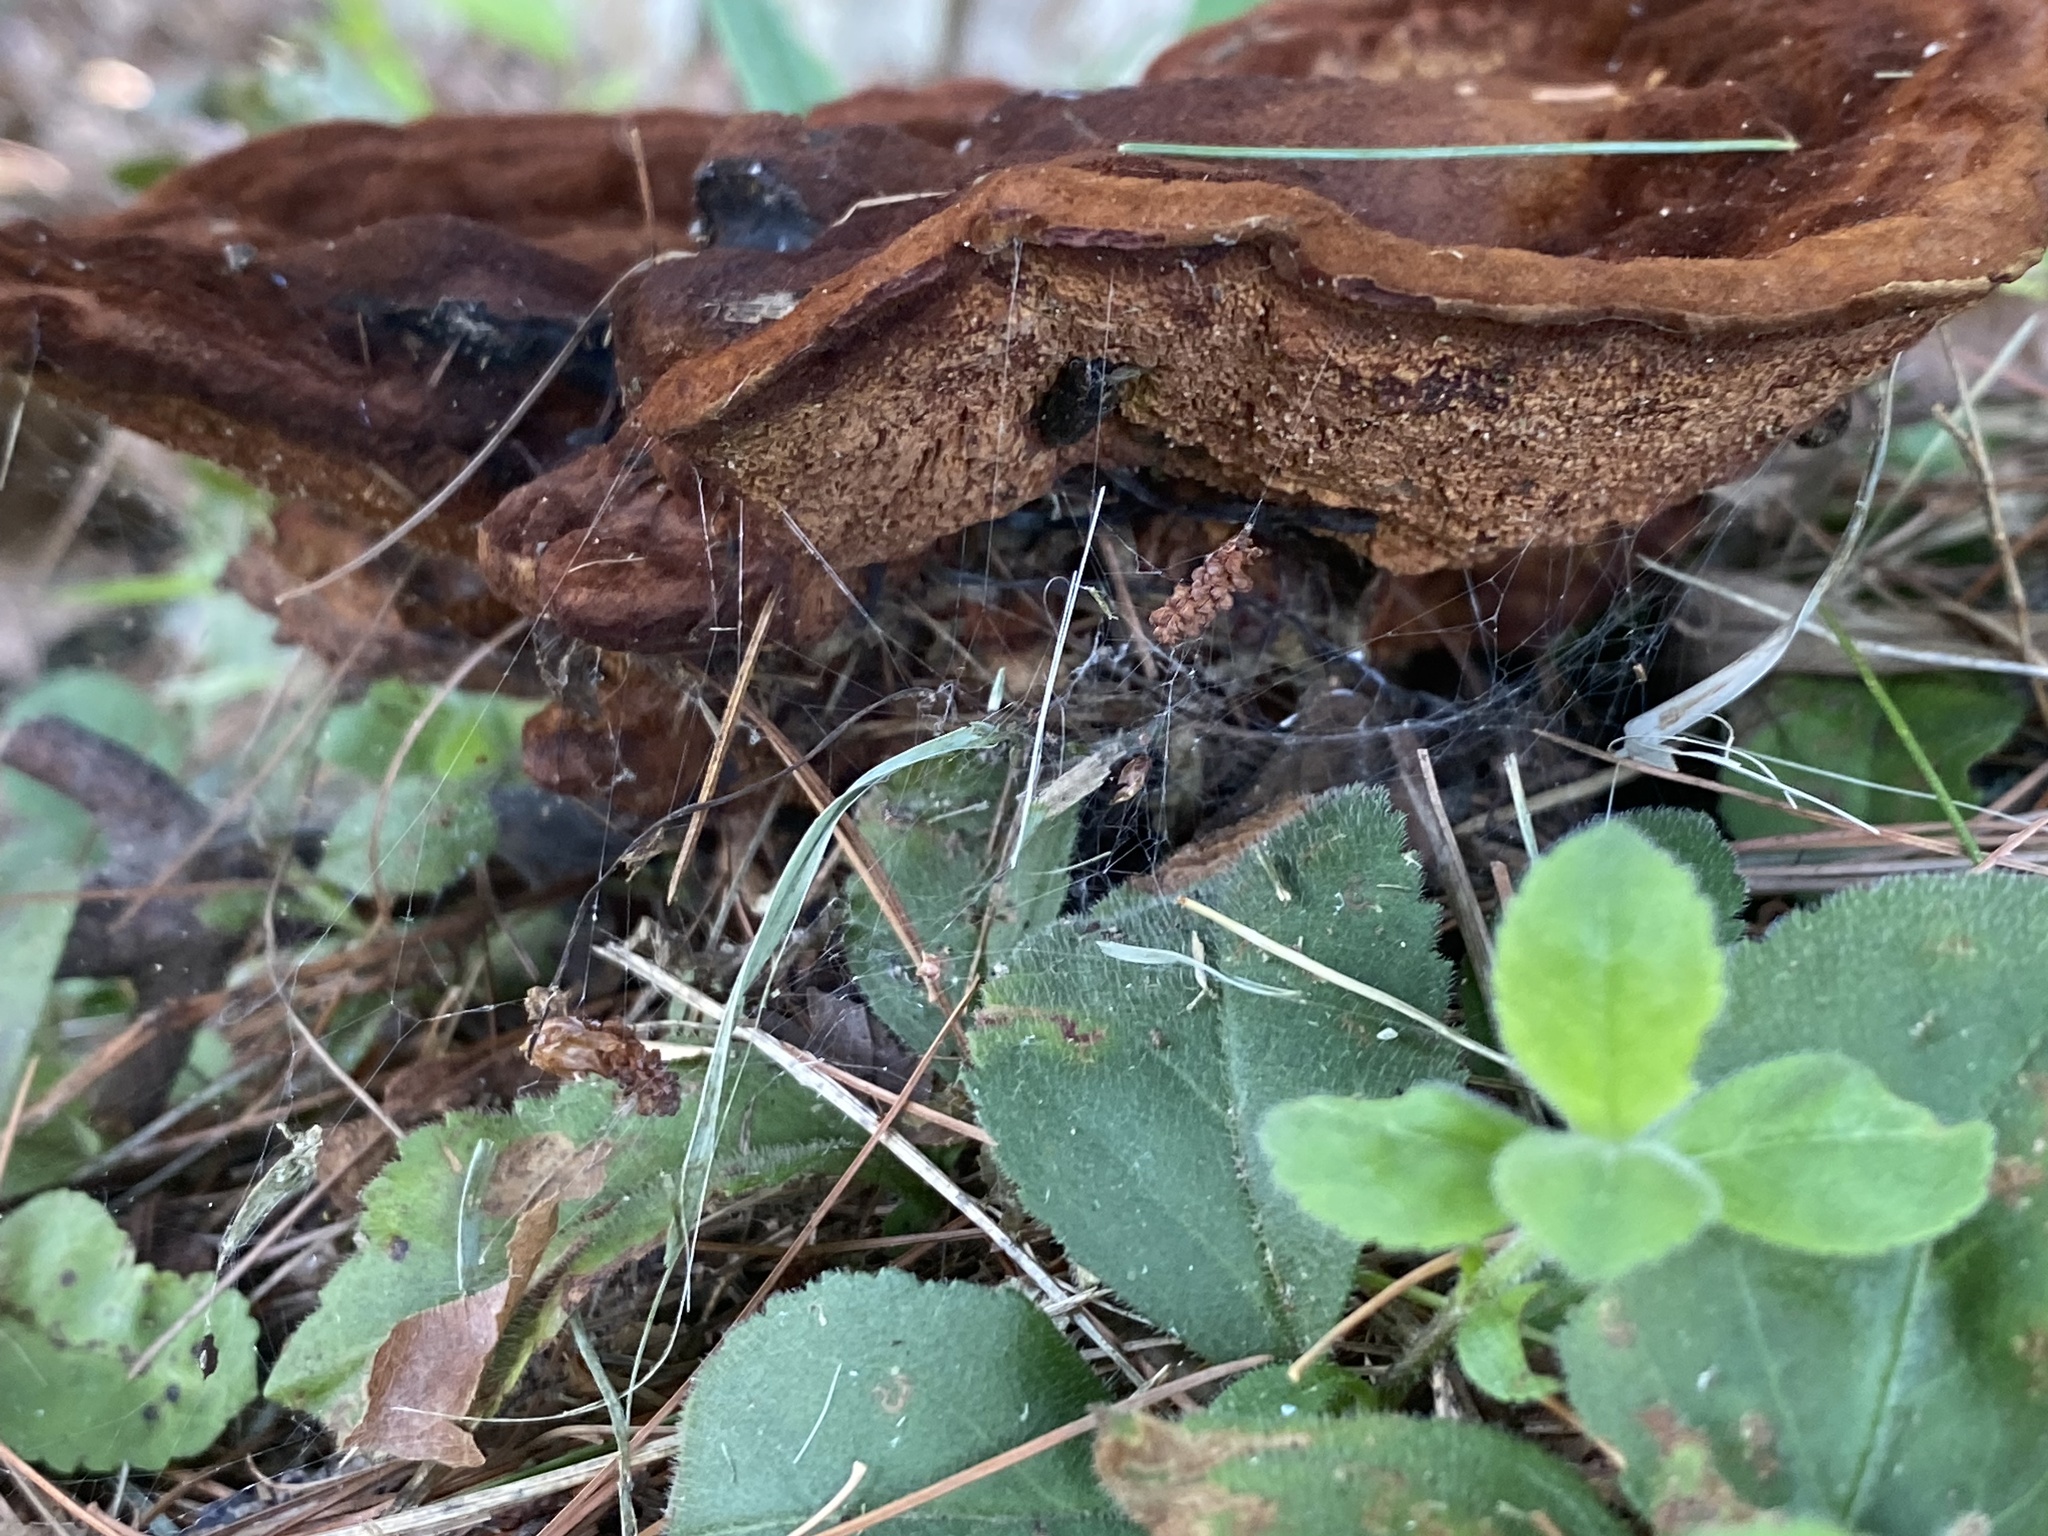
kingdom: Fungi
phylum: Basidiomycota
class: Agaricomycetes
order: Polyporales
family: Laetiporaceae
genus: Phaeolus
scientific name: Phaeolus schweinitzii
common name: Dyer's mazegill
